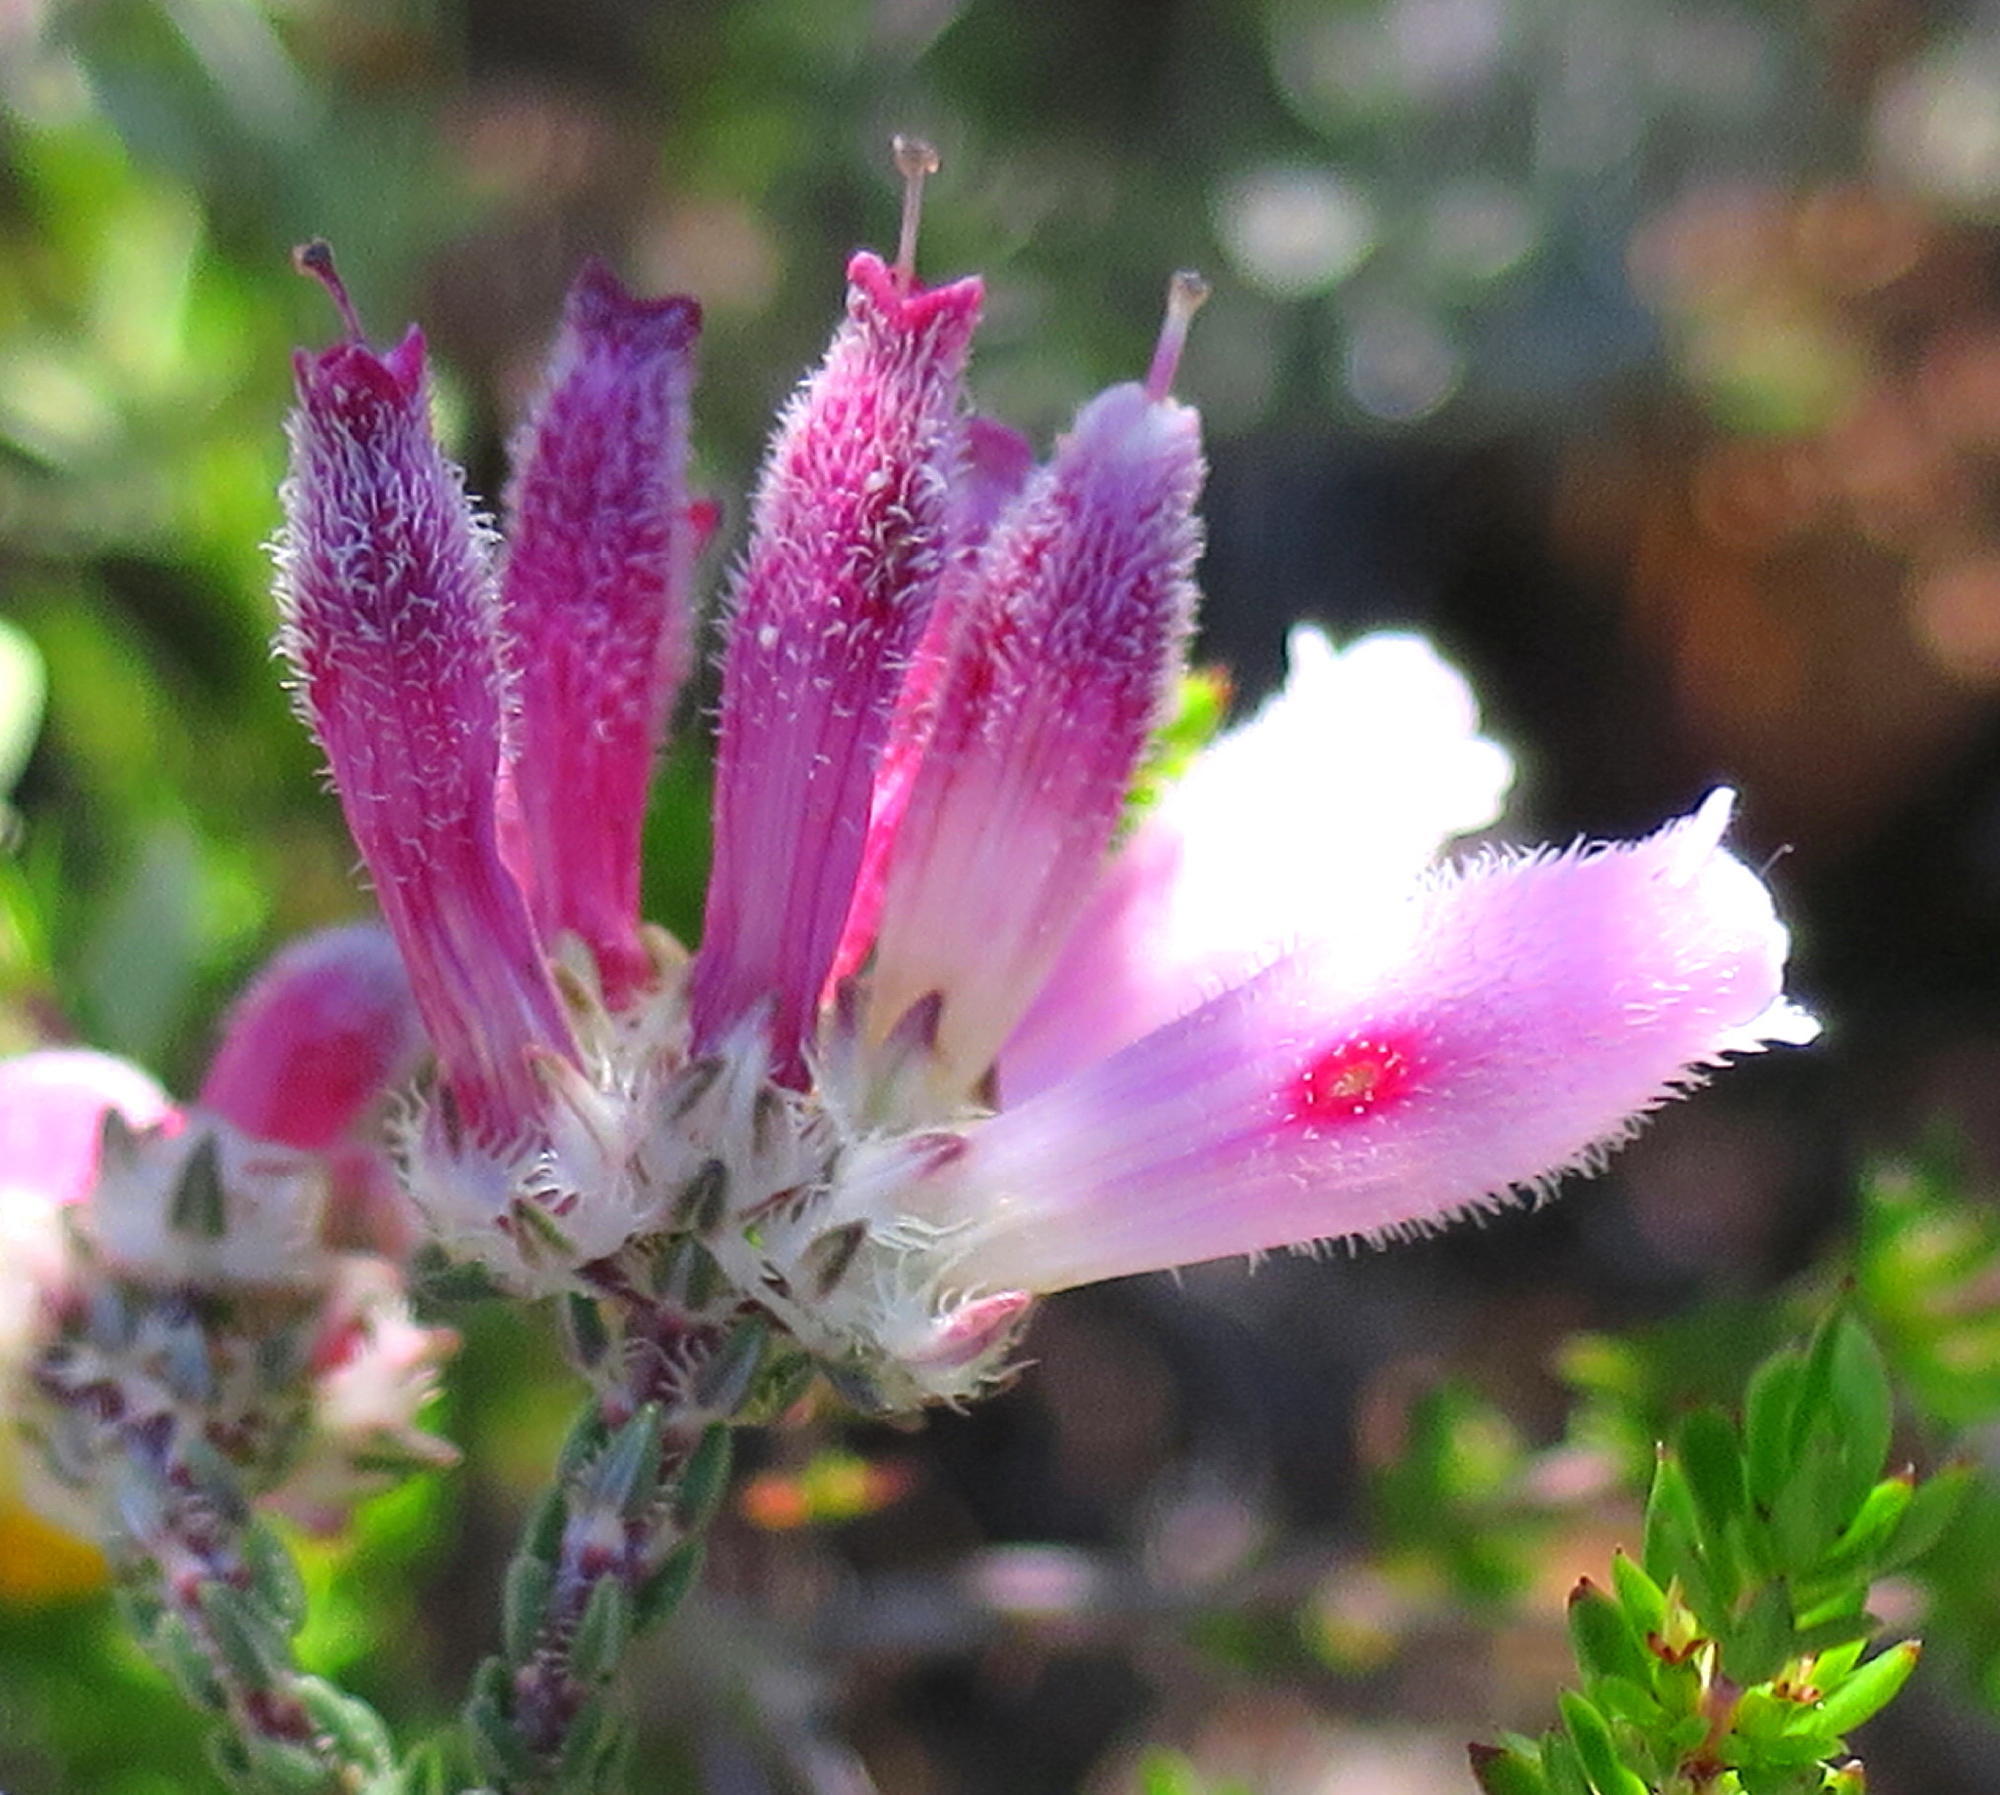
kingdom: Plantae
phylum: Tracheophyta
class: Magnoliopsida
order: Ericales
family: Ericaceae
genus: Erica
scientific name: Erica pectinifolia
